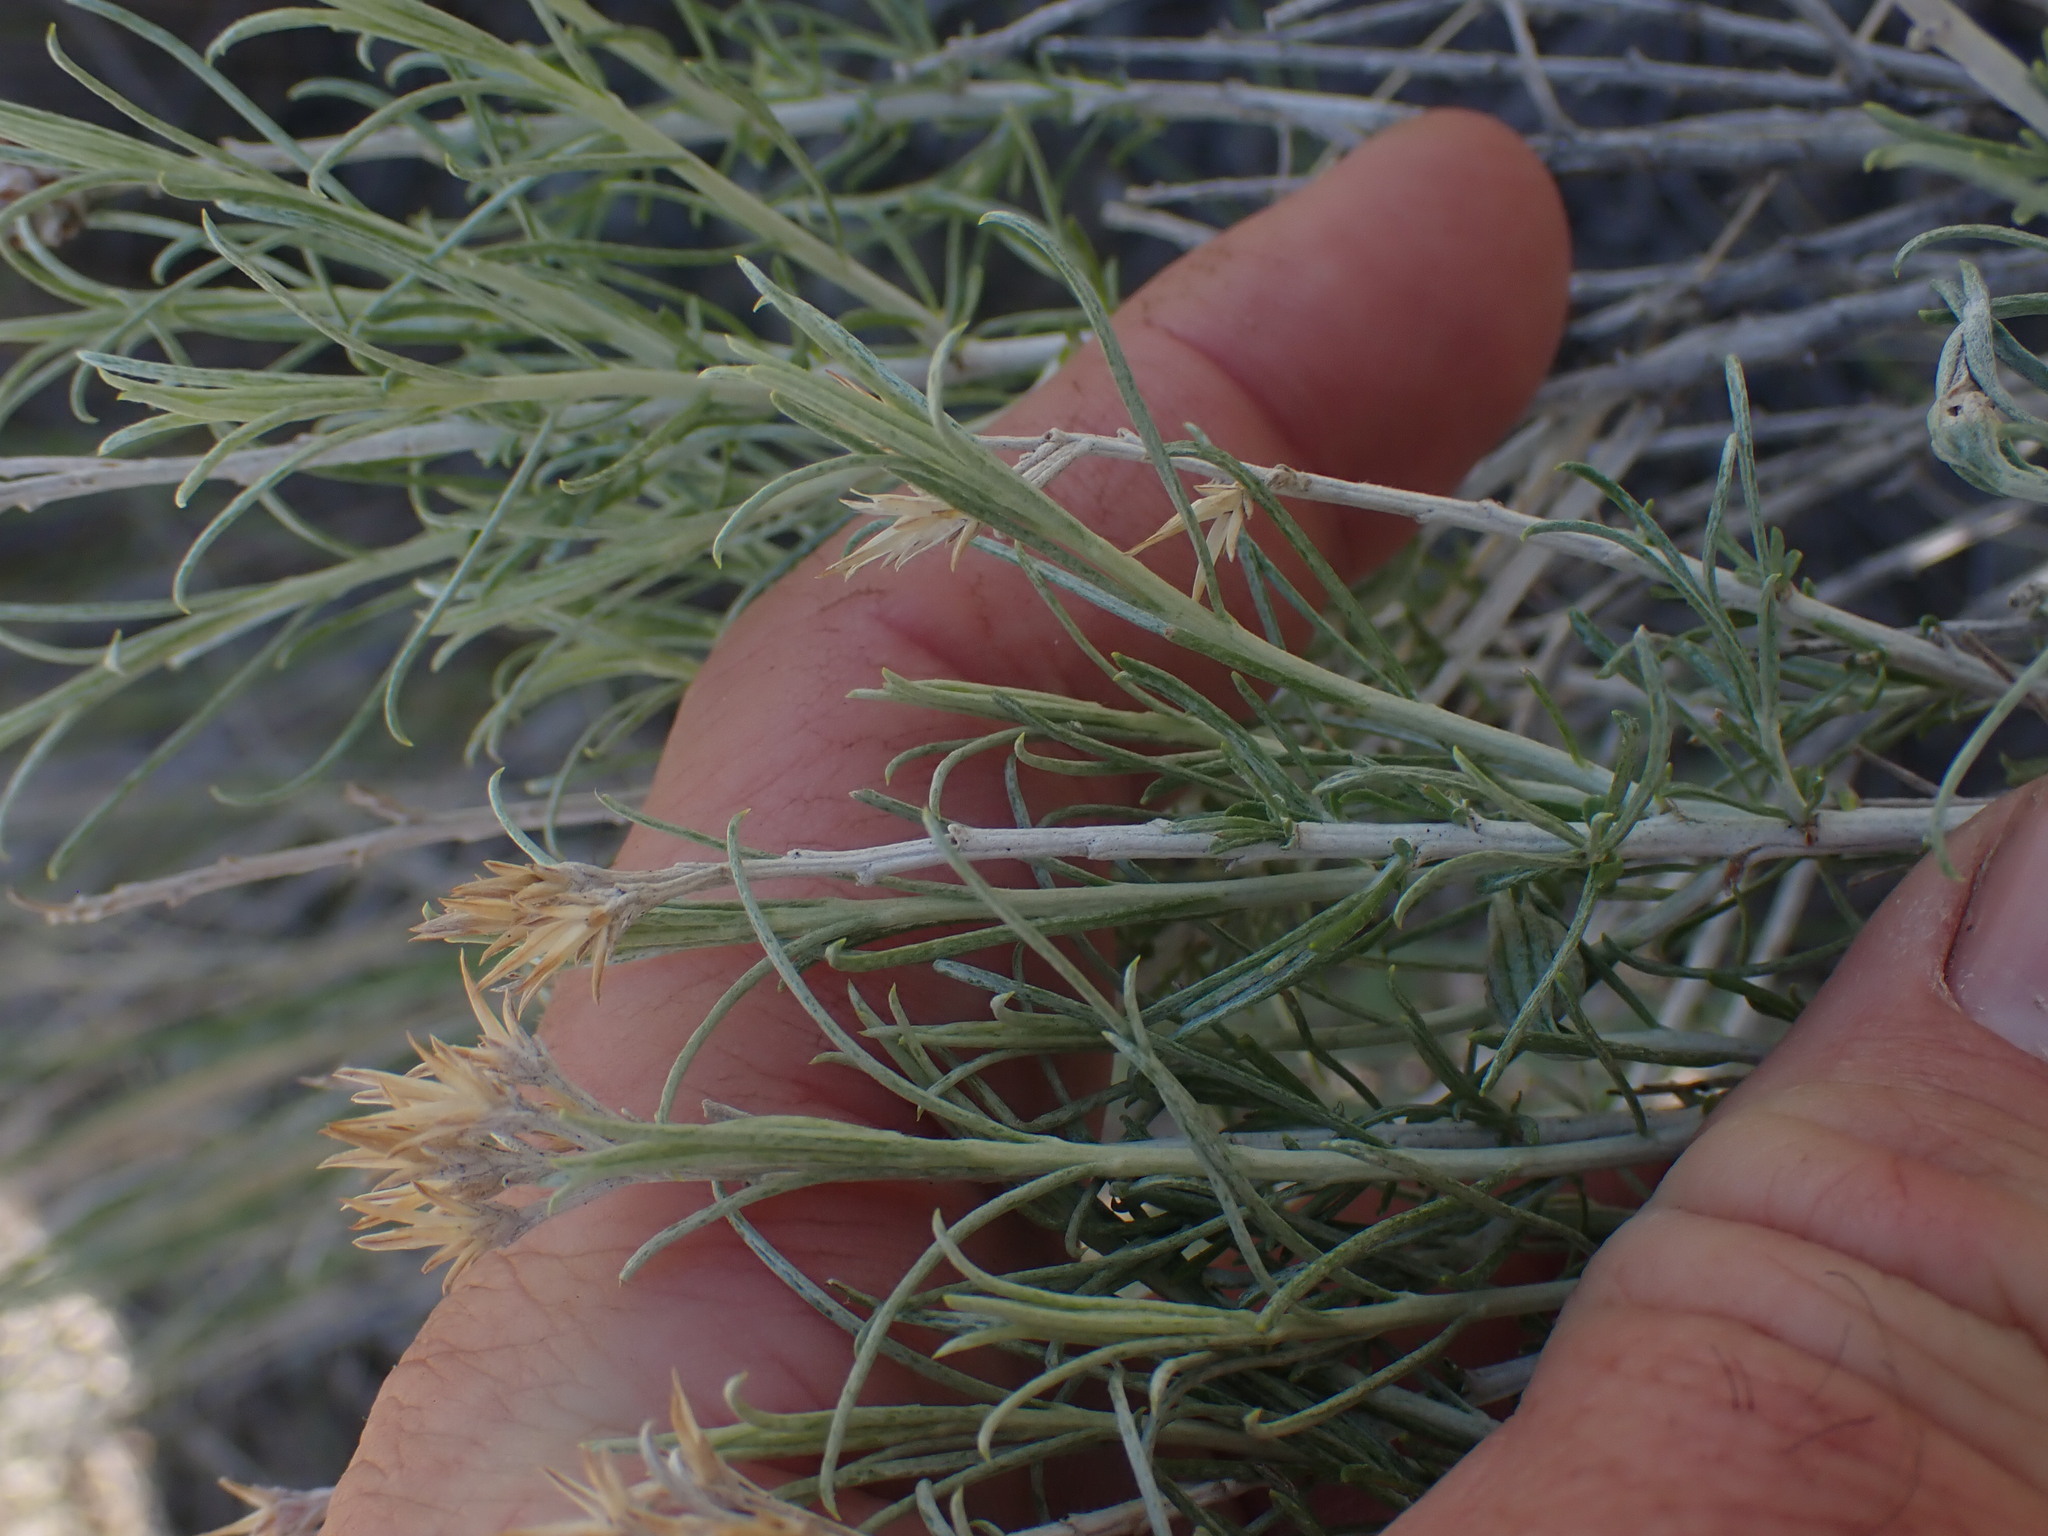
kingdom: Plantae
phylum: Tracheophyta
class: Magnoliopsida
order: Asterales
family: Asteraceae
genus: Ericameria
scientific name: Ericameria nauseosa
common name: Rubber rabbitbrush
